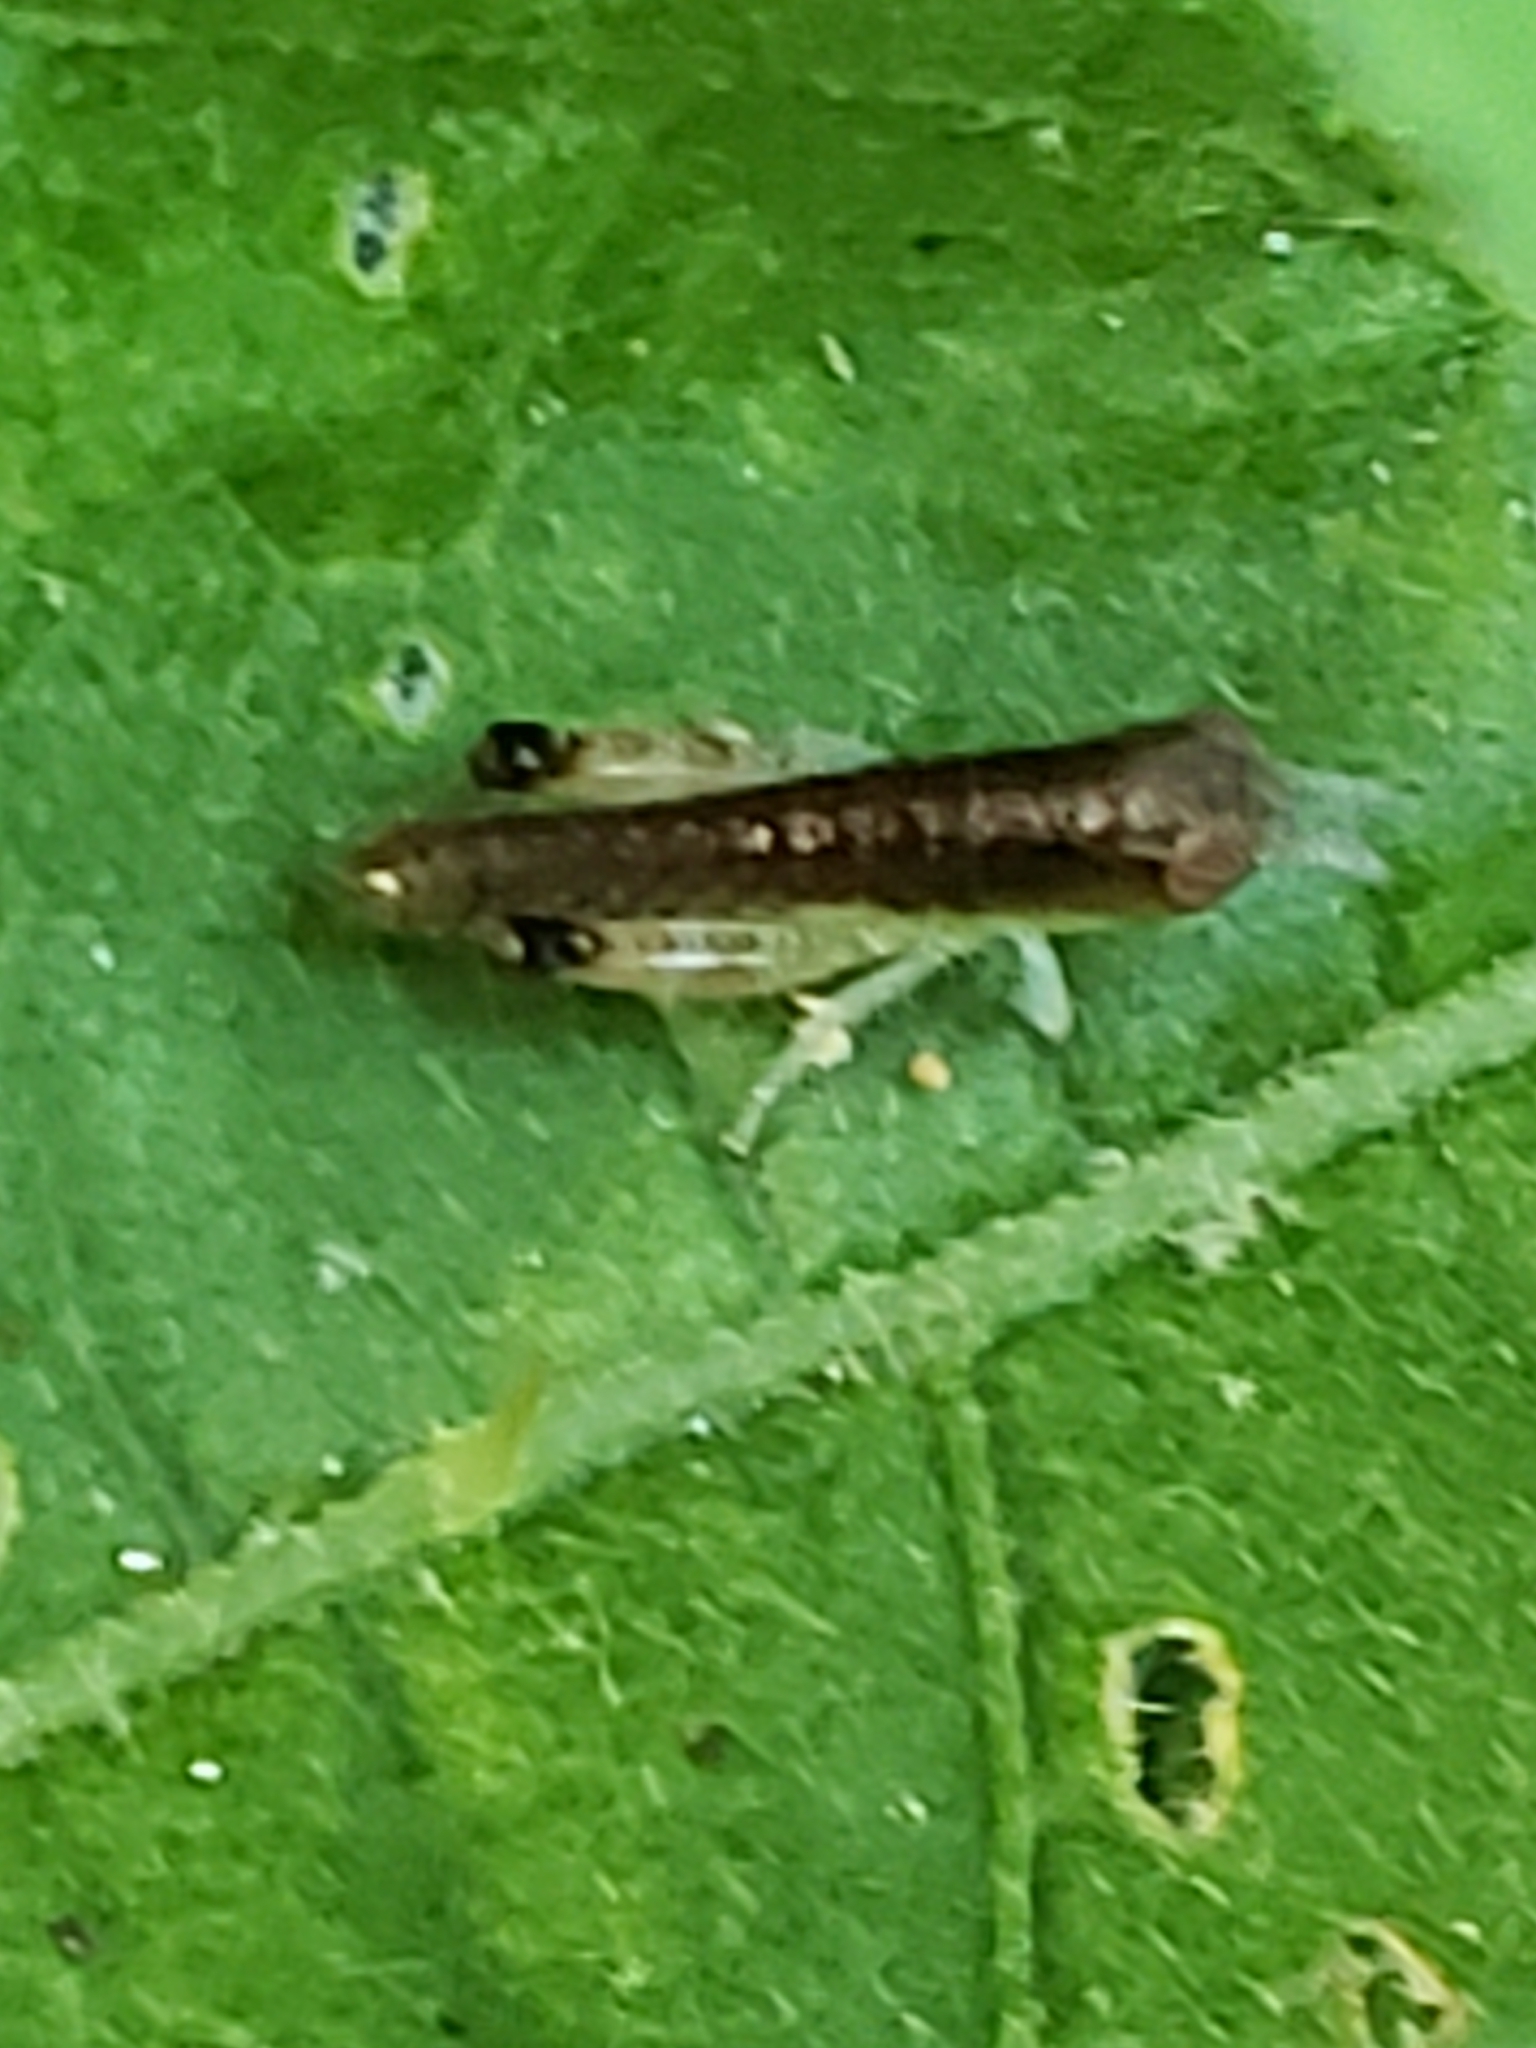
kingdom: Animalia
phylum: Arthropoda
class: Insecta
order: Orthoptera
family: Acrididae
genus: Chortophaga
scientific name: Chortophaga viridifasciata
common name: Green-striped grasshopper
